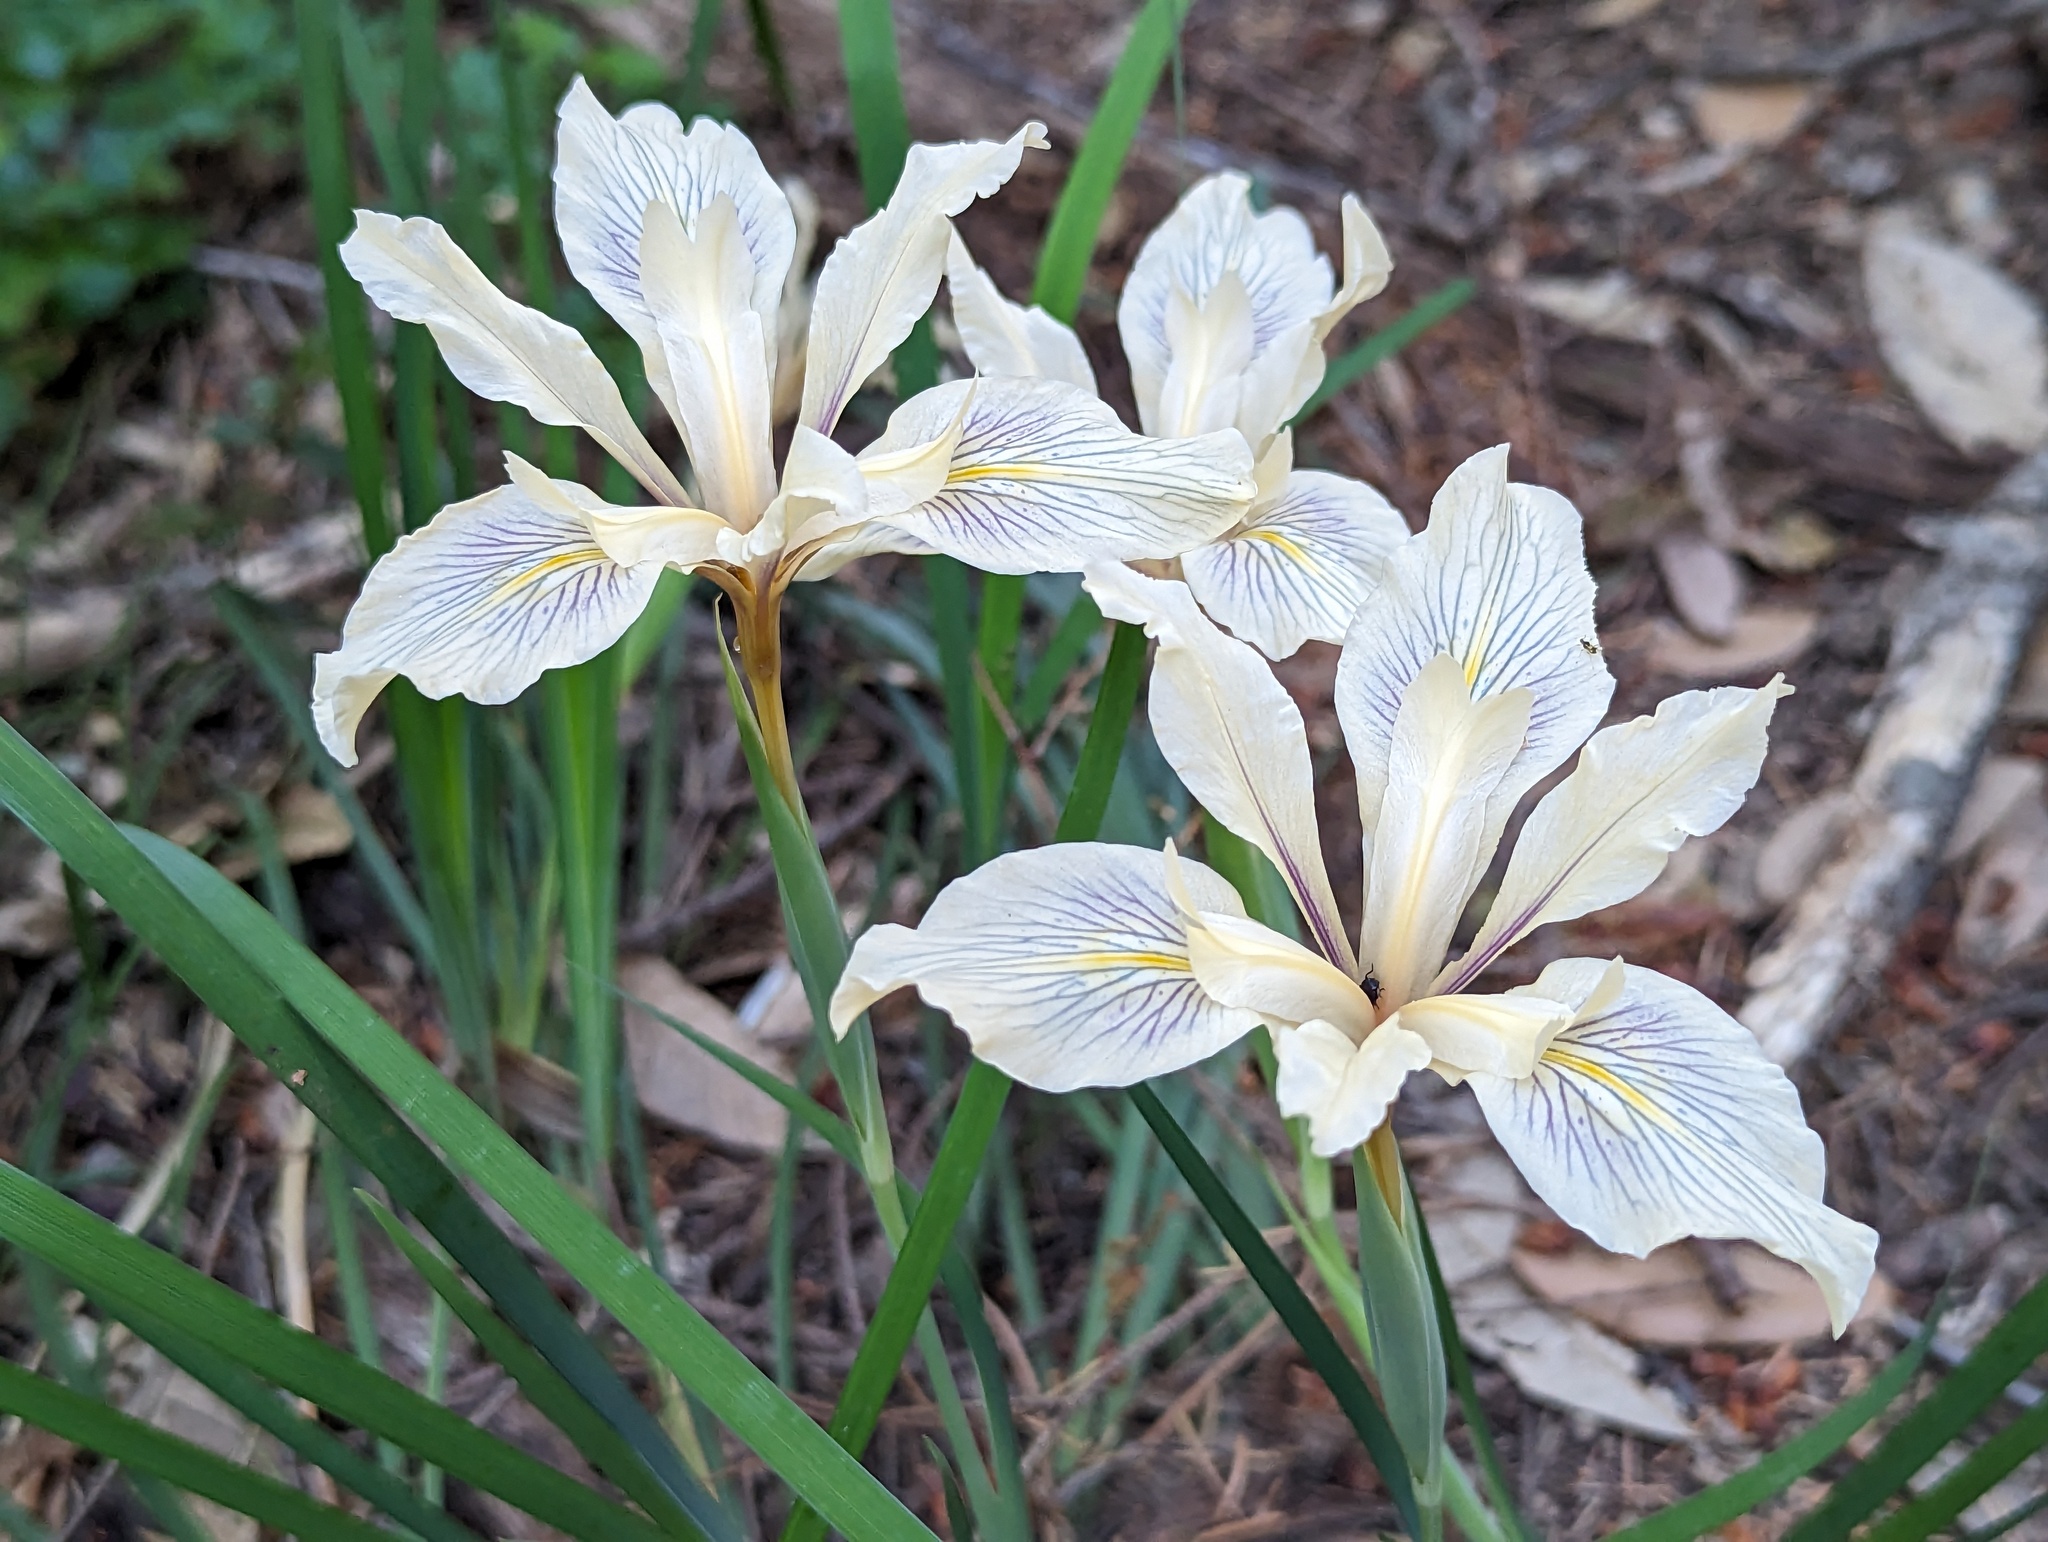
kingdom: Plantae
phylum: Tracheophyta
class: Liliopsida
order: Asparagales
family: Iridaceae
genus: Iris
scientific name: Iris fernaldii
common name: Fernald's iris
